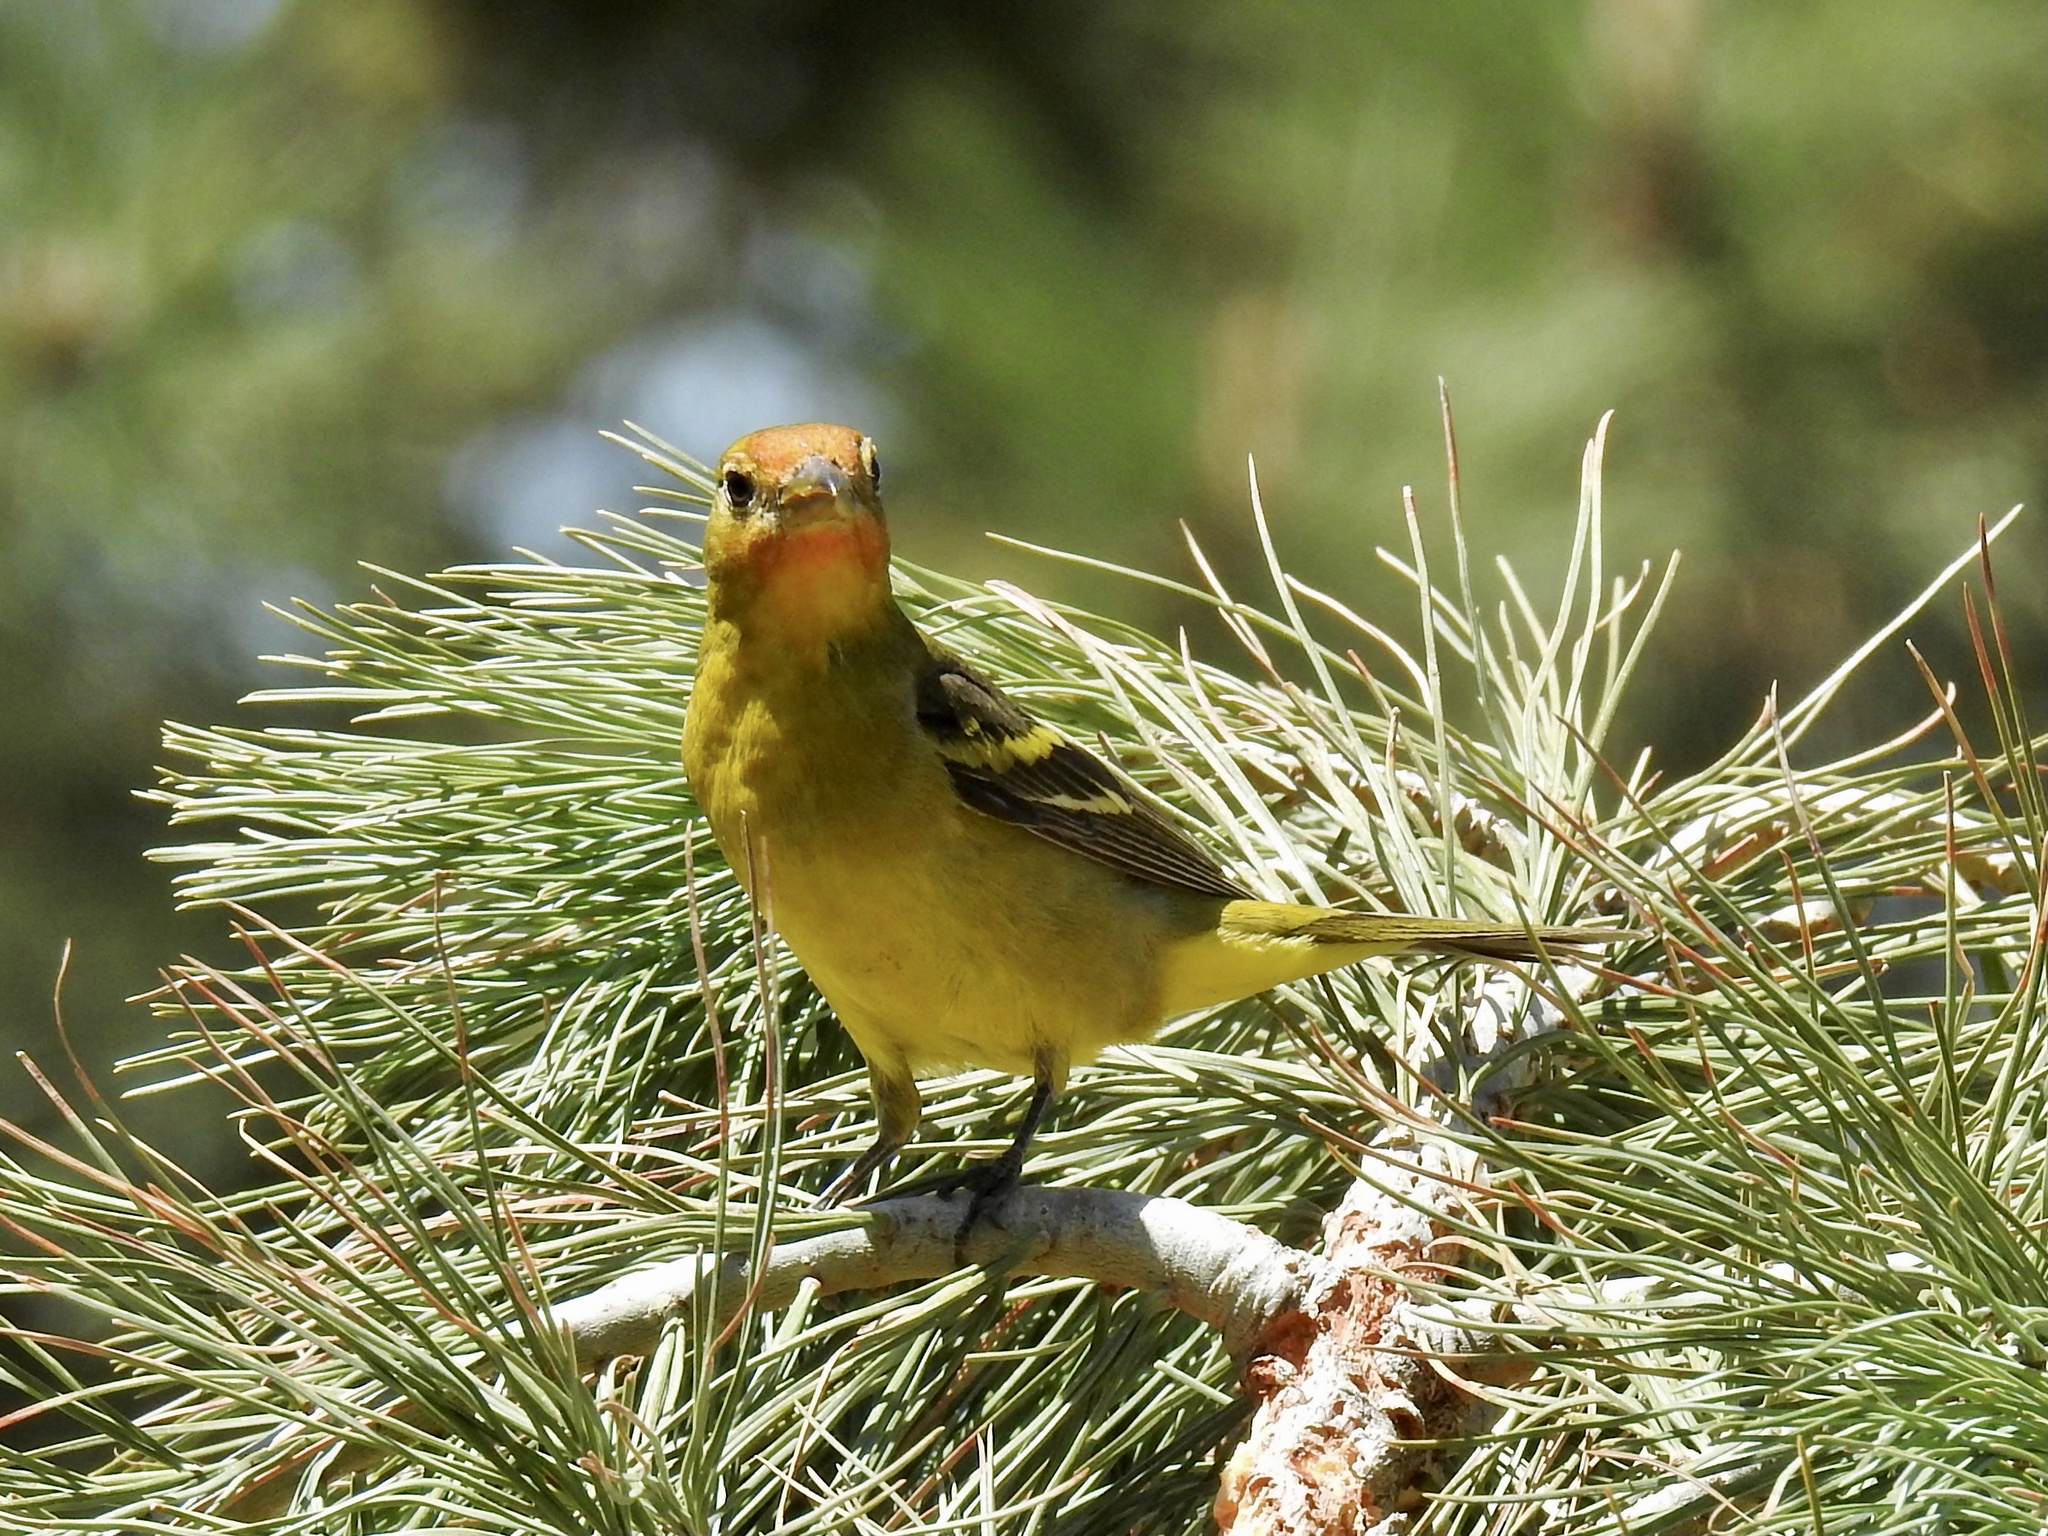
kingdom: Animalia
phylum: Chordata
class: Aves
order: Passeriformes
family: Cardinalidae
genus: Piranga
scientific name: Piranga ludoviciana
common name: Western tanager
